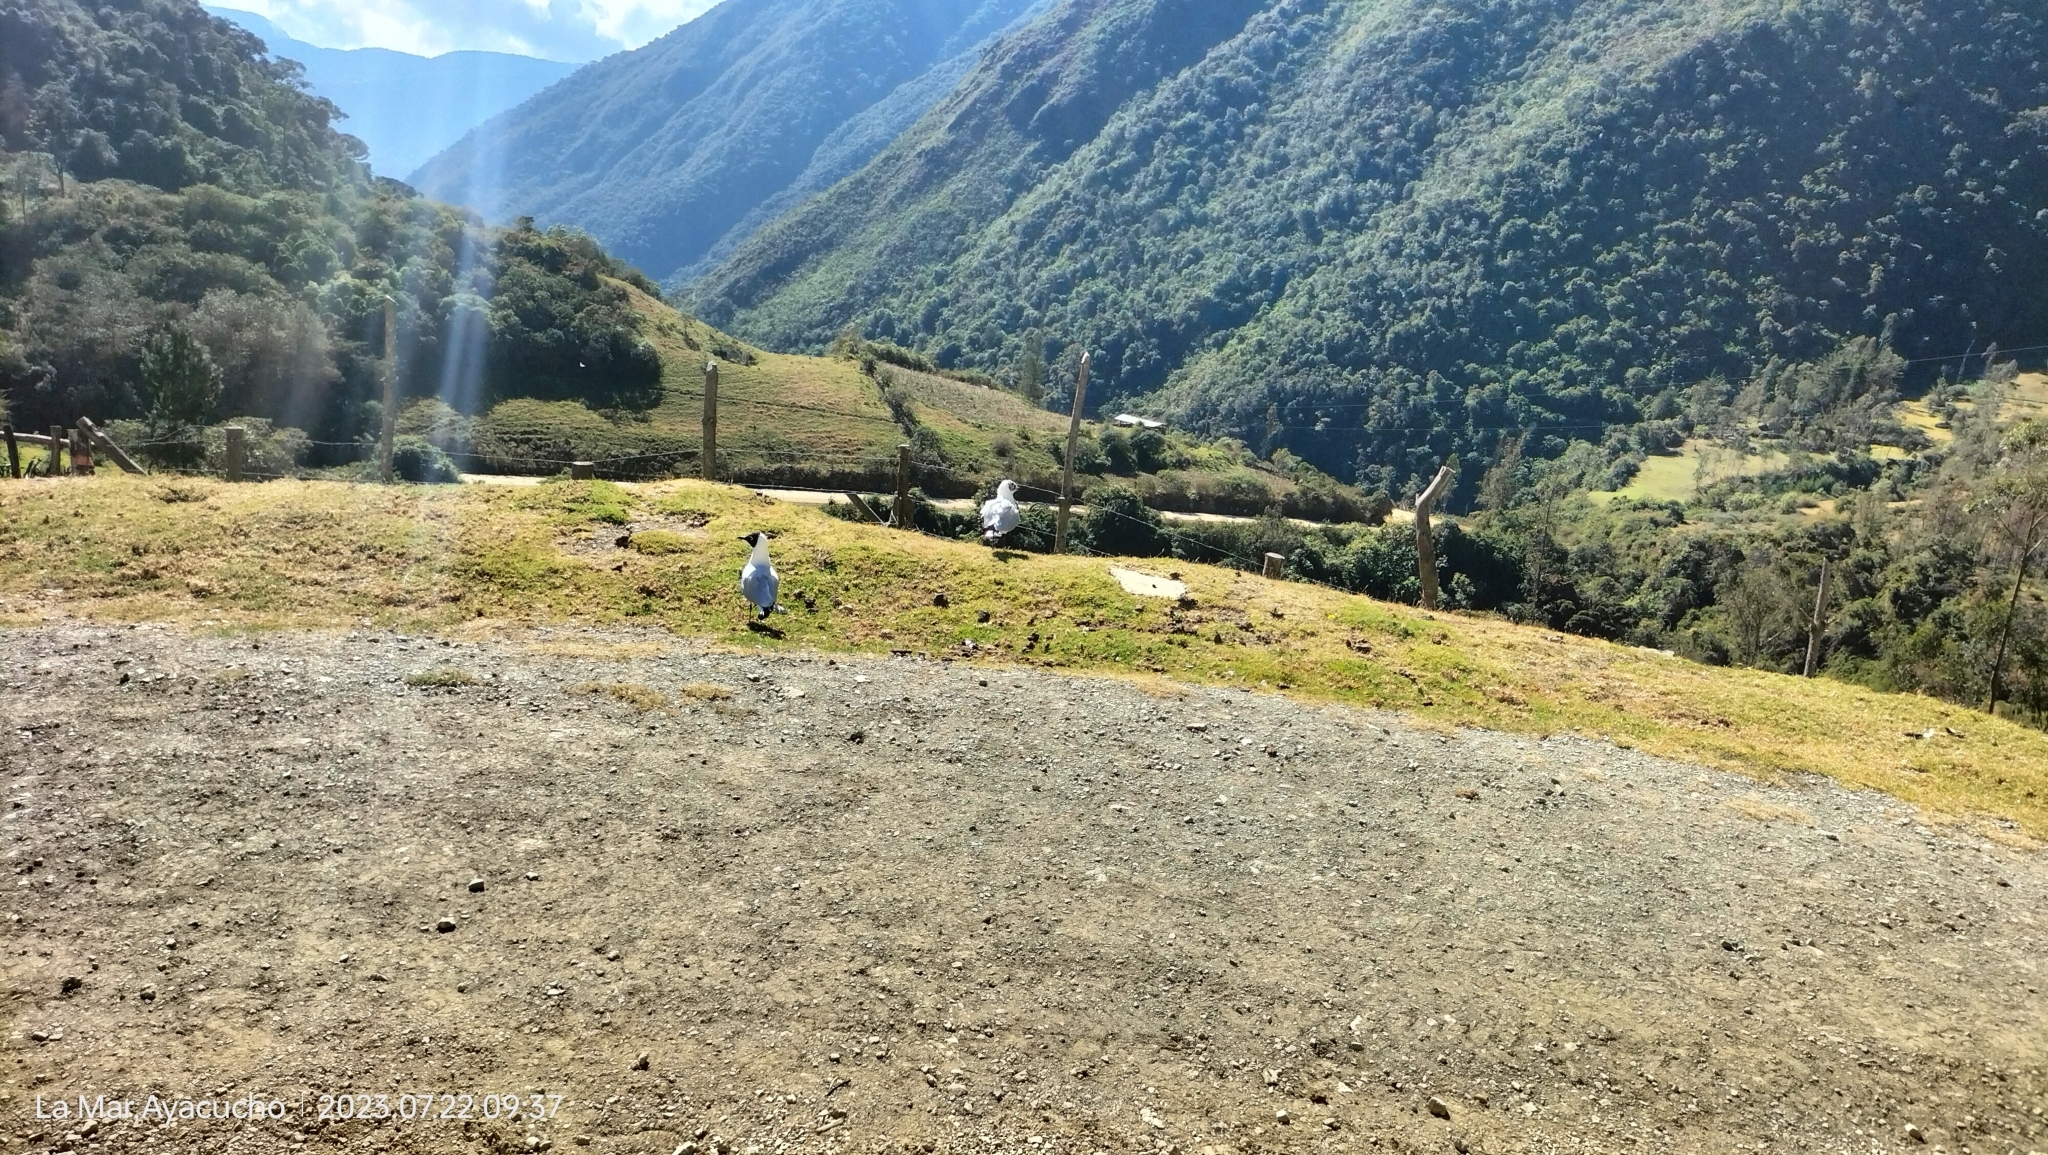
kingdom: Animalia
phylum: Chordata
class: Aves
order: Charadriiformes
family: Laridae
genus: Chroicocephalus
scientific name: Chroicocephalus serranus
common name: Andean gull
